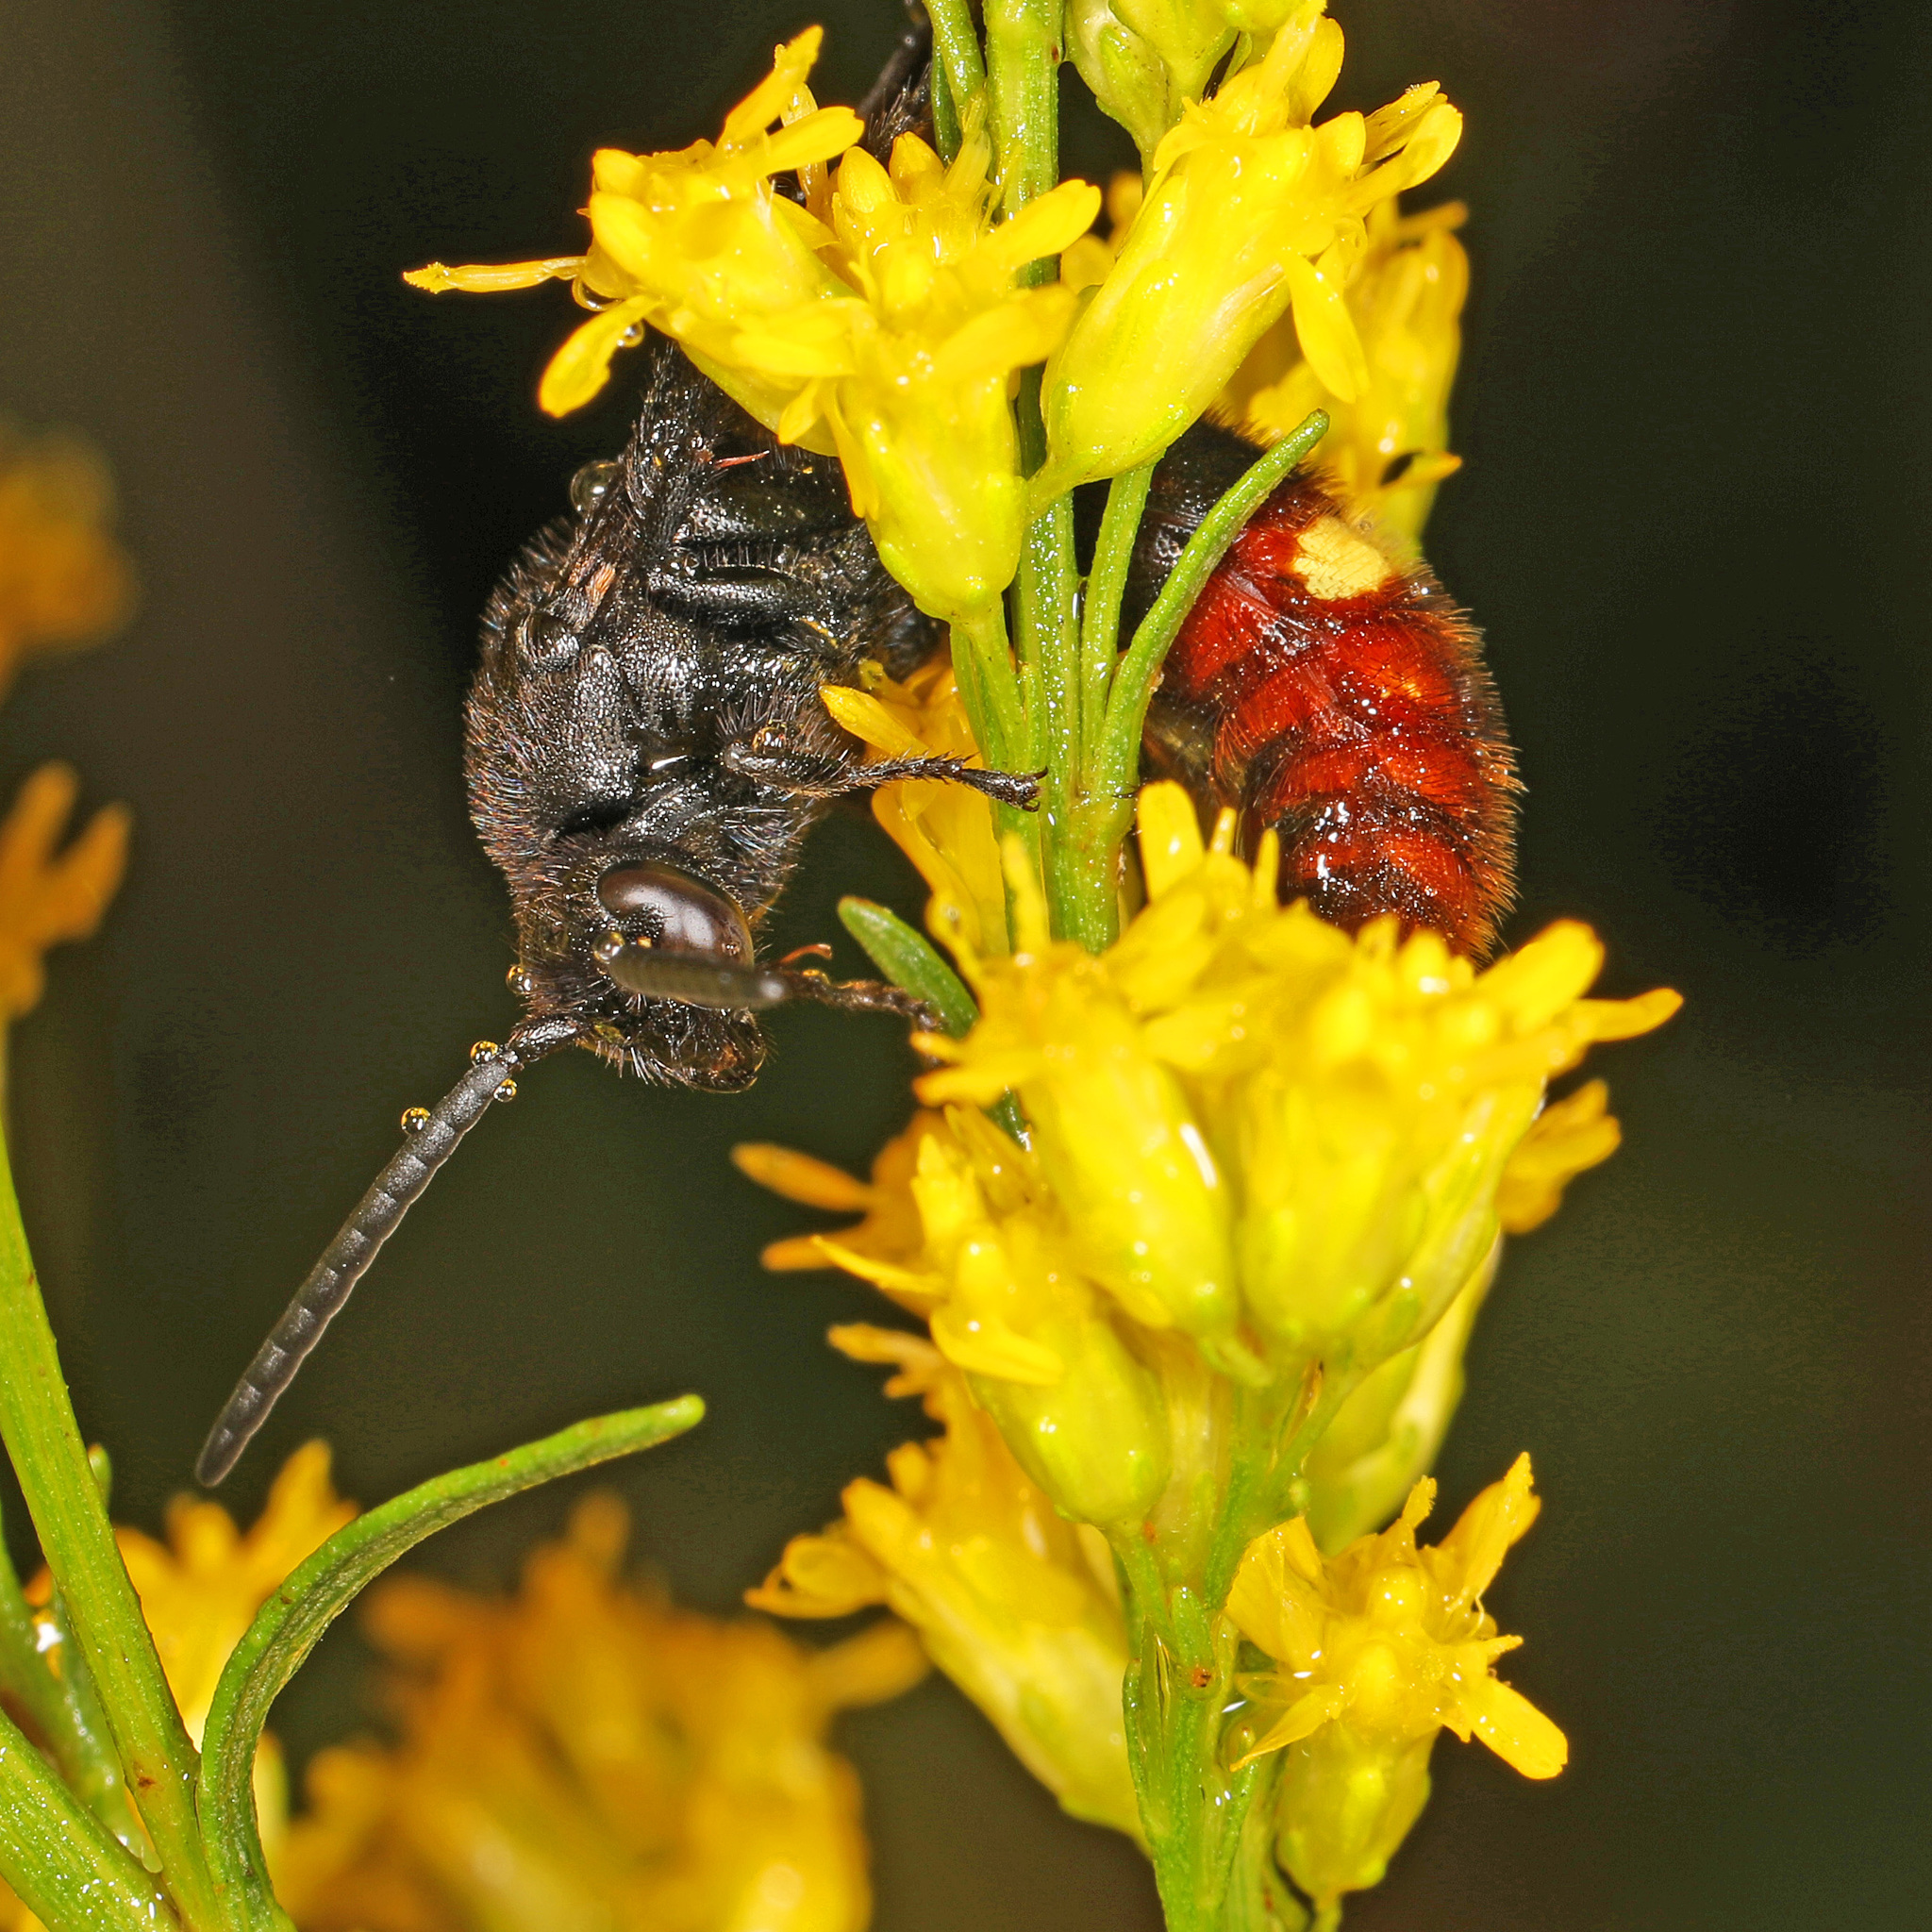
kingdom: Animalia
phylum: Arthropoda
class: Insecta
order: Hymenoptera
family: Scoliidae
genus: Scolia
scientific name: Scolia dubia
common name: Blue-winged scoliid wasp
